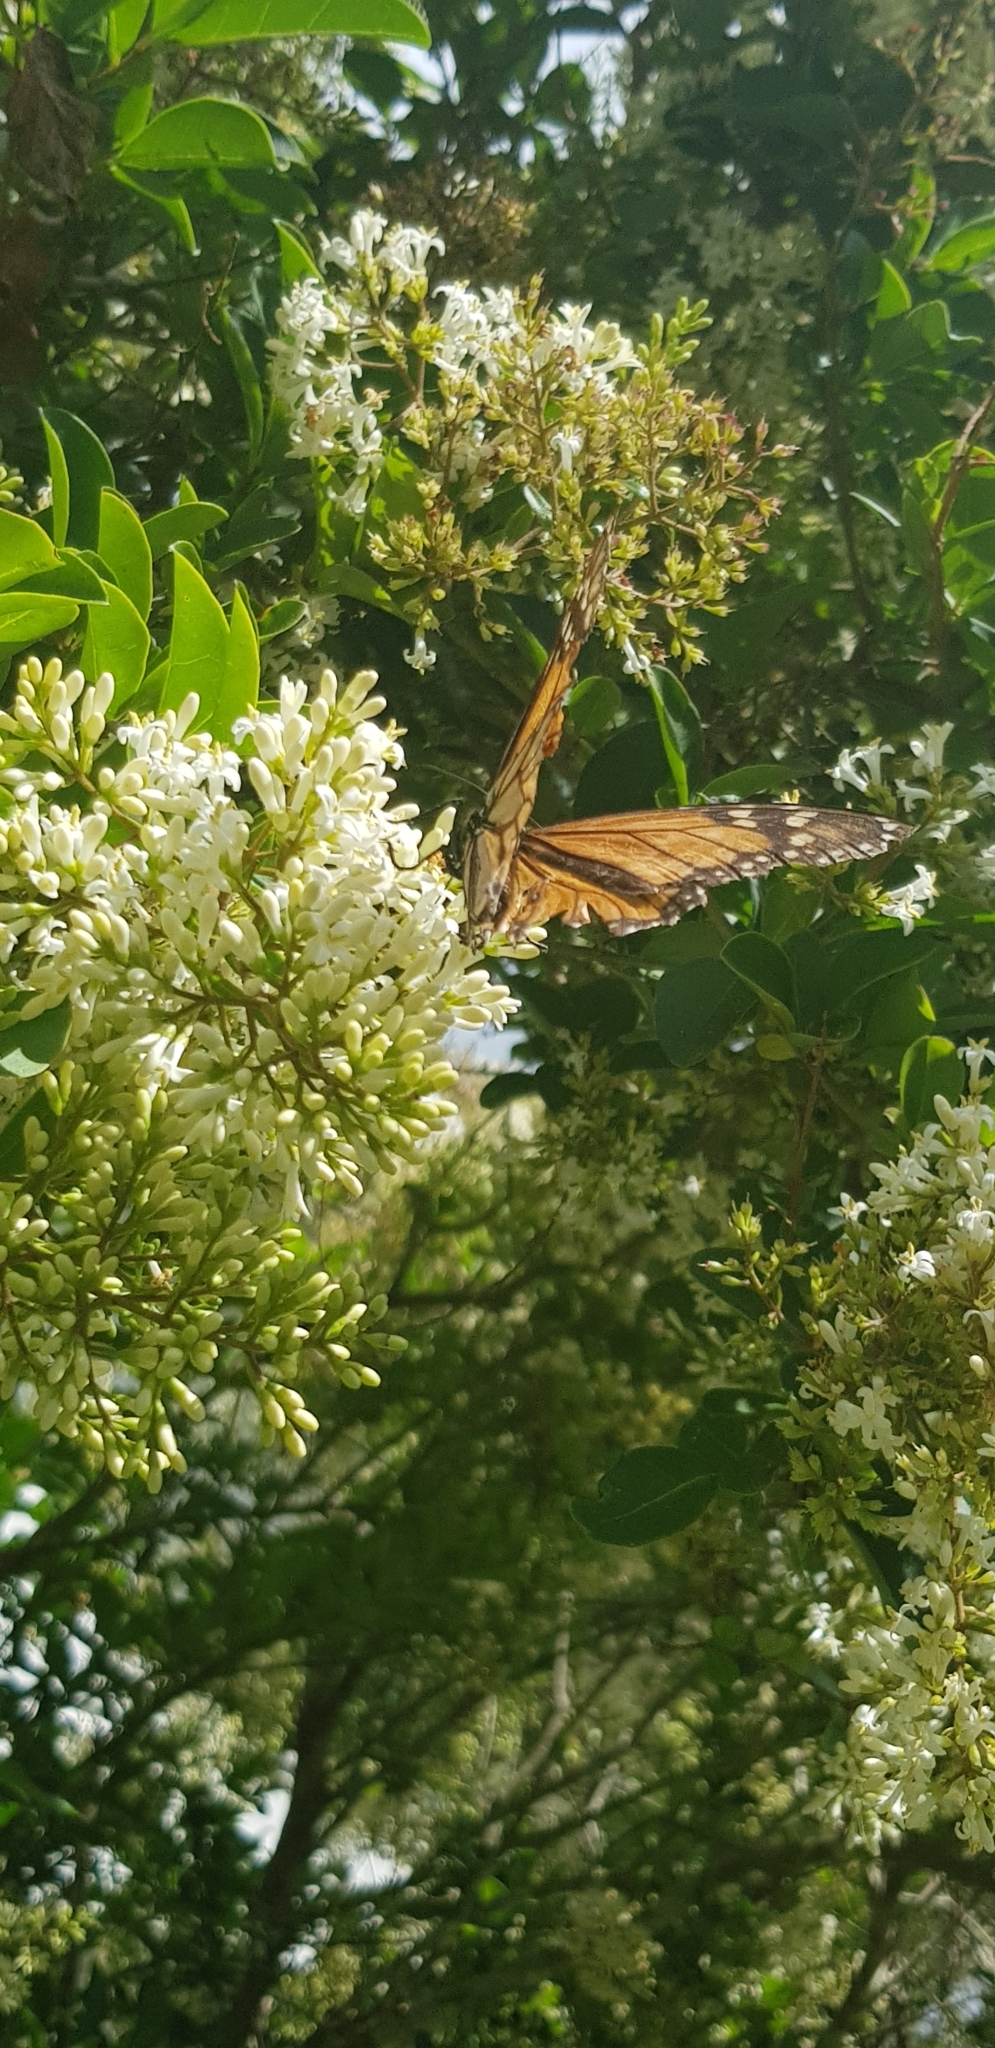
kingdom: Animalia
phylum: Arthropoda
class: Insecta
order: Lepidoptera
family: Nymphalidae
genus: Danaus
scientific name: Danaus plexippus
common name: Monarch
